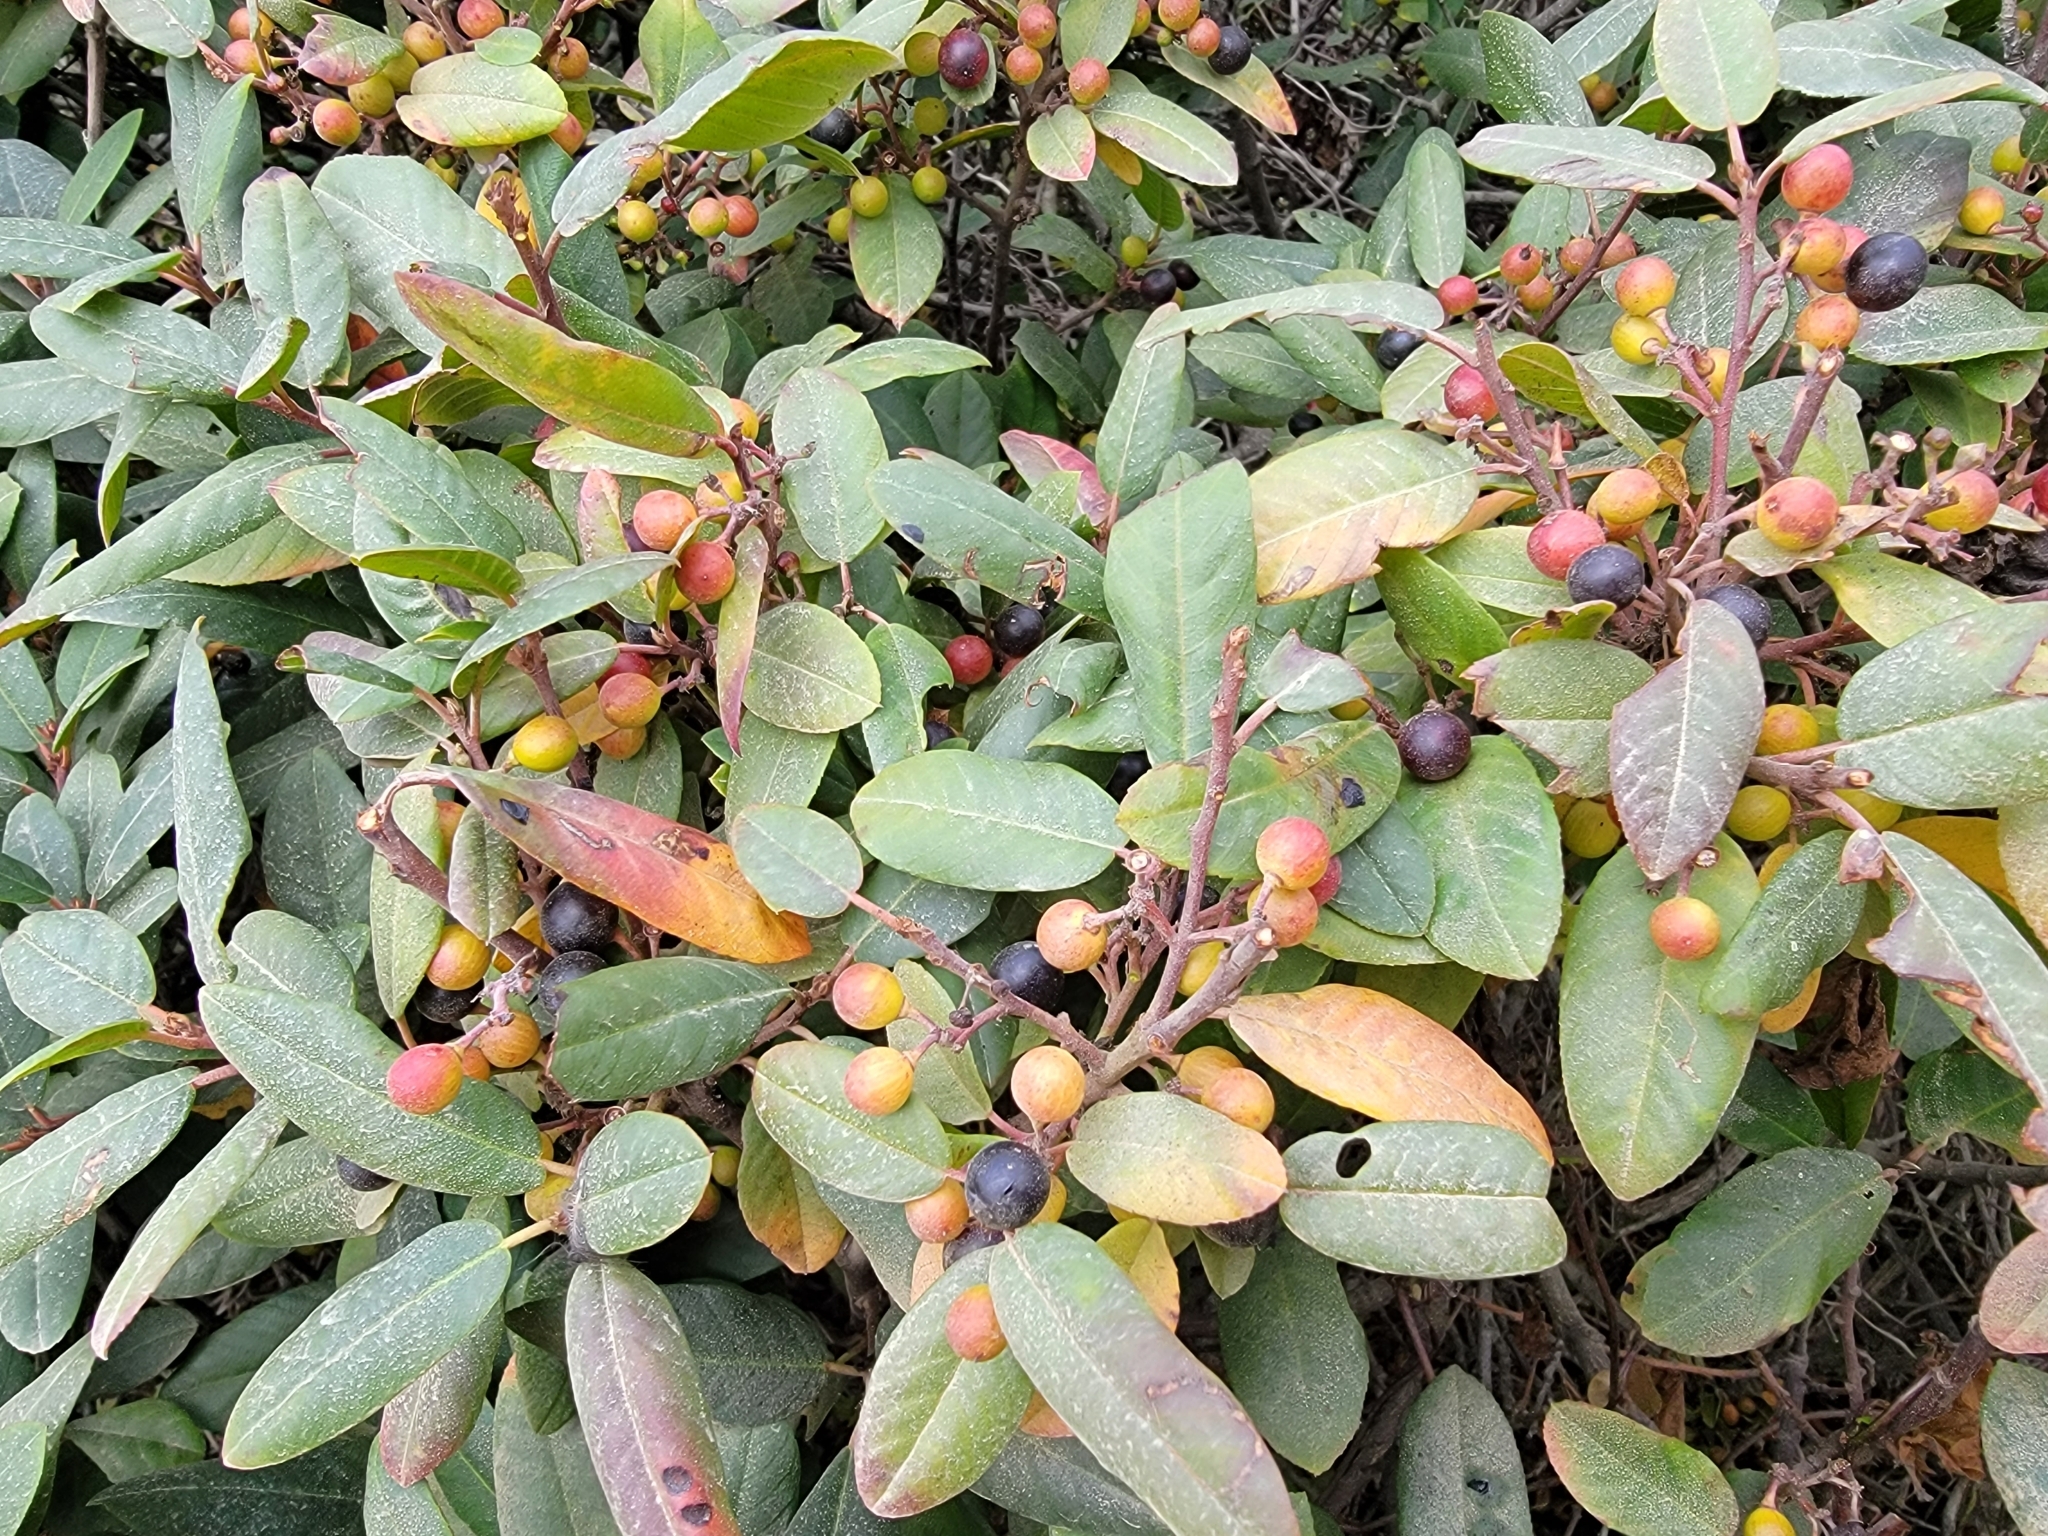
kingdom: Plantae
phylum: Tracheophyta
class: Magnoliopsida
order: Rosales
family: Rhamnaceae
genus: Frangula
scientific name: Frangula californica
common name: California buckthorn
